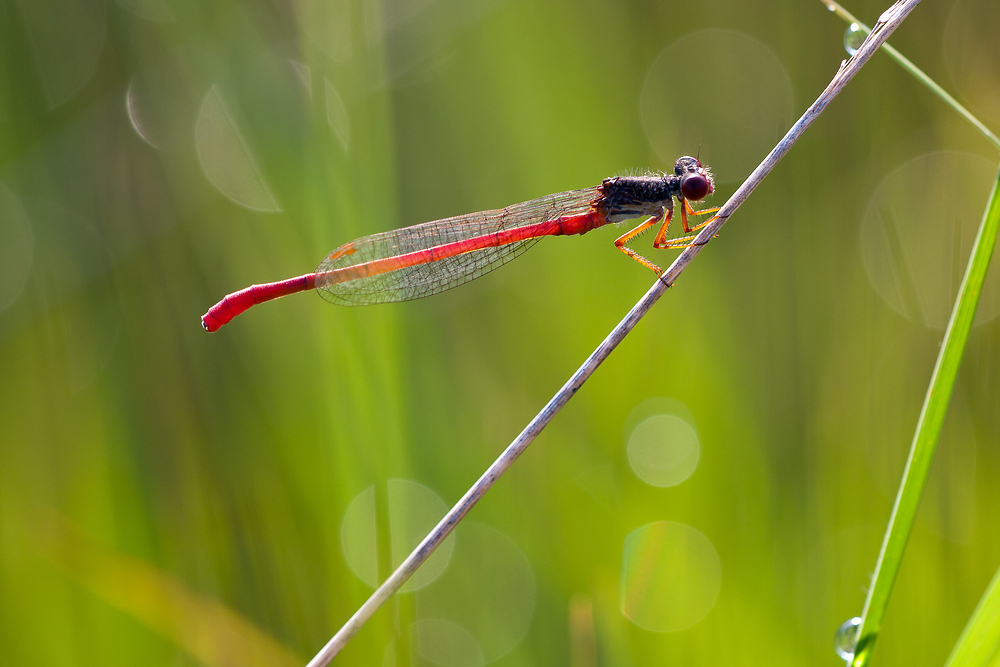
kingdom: Animalia
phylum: Arthropoda
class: Insecta
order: Odonata
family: Coenagrionidae
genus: Ceriagrion
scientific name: Ceriagrion tenellum
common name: Small red damselfly
